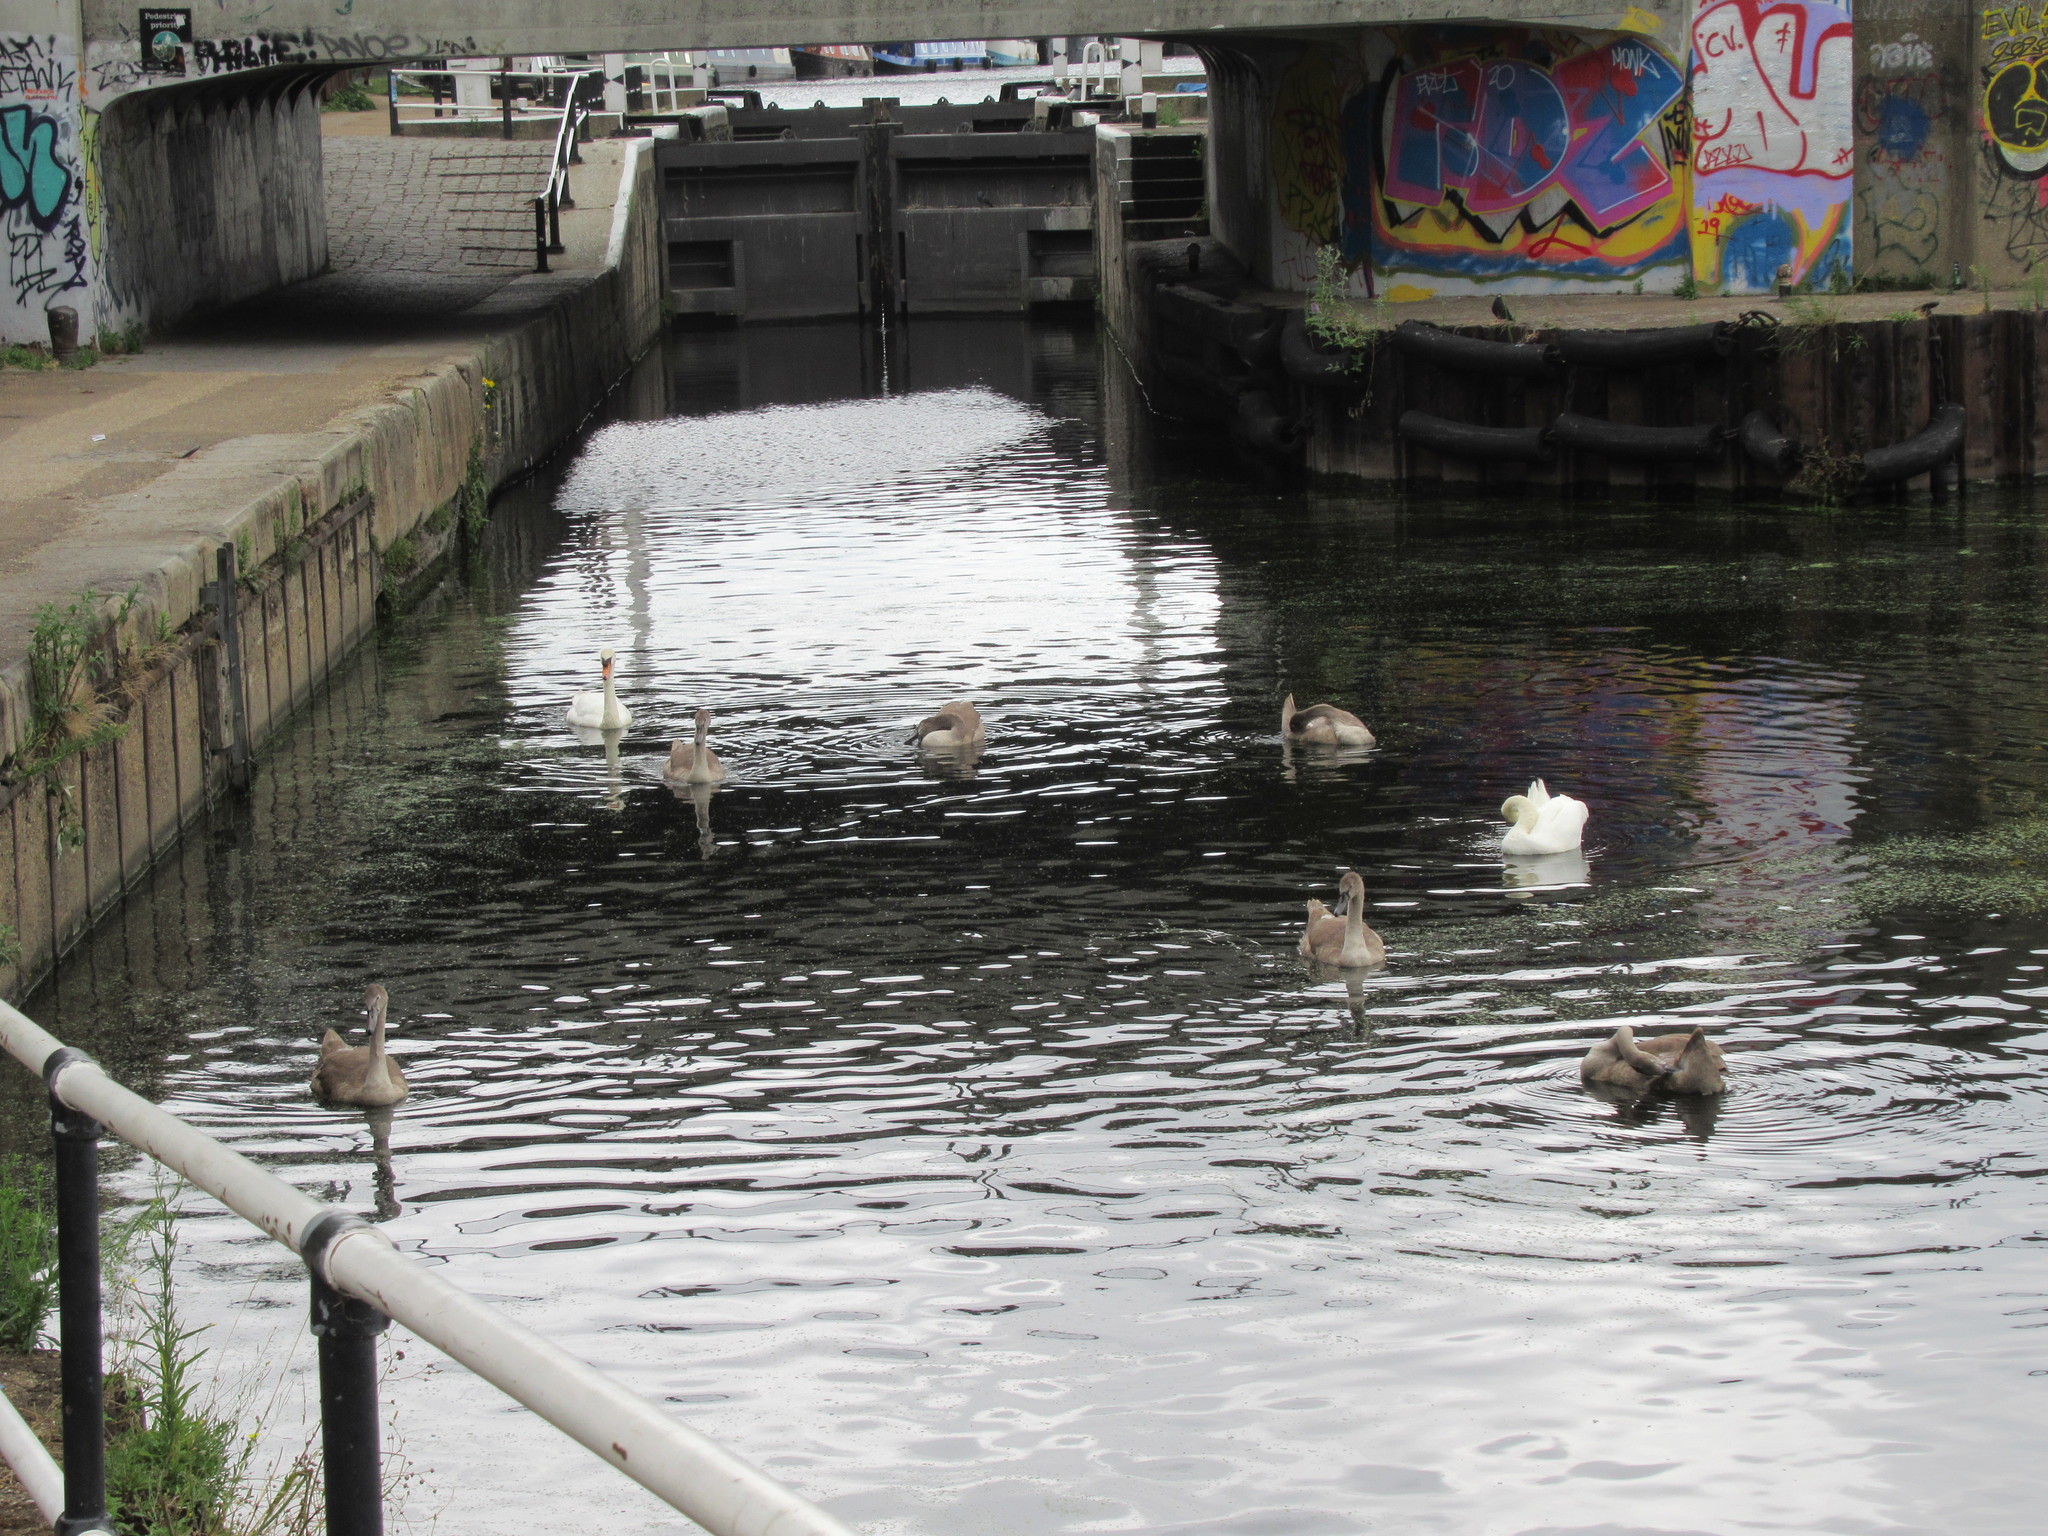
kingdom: Animalia
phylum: Chordata
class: Aves
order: Anseriformes
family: Anatidae
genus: Cygnus
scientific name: Cygnus olor
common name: Mute swan
